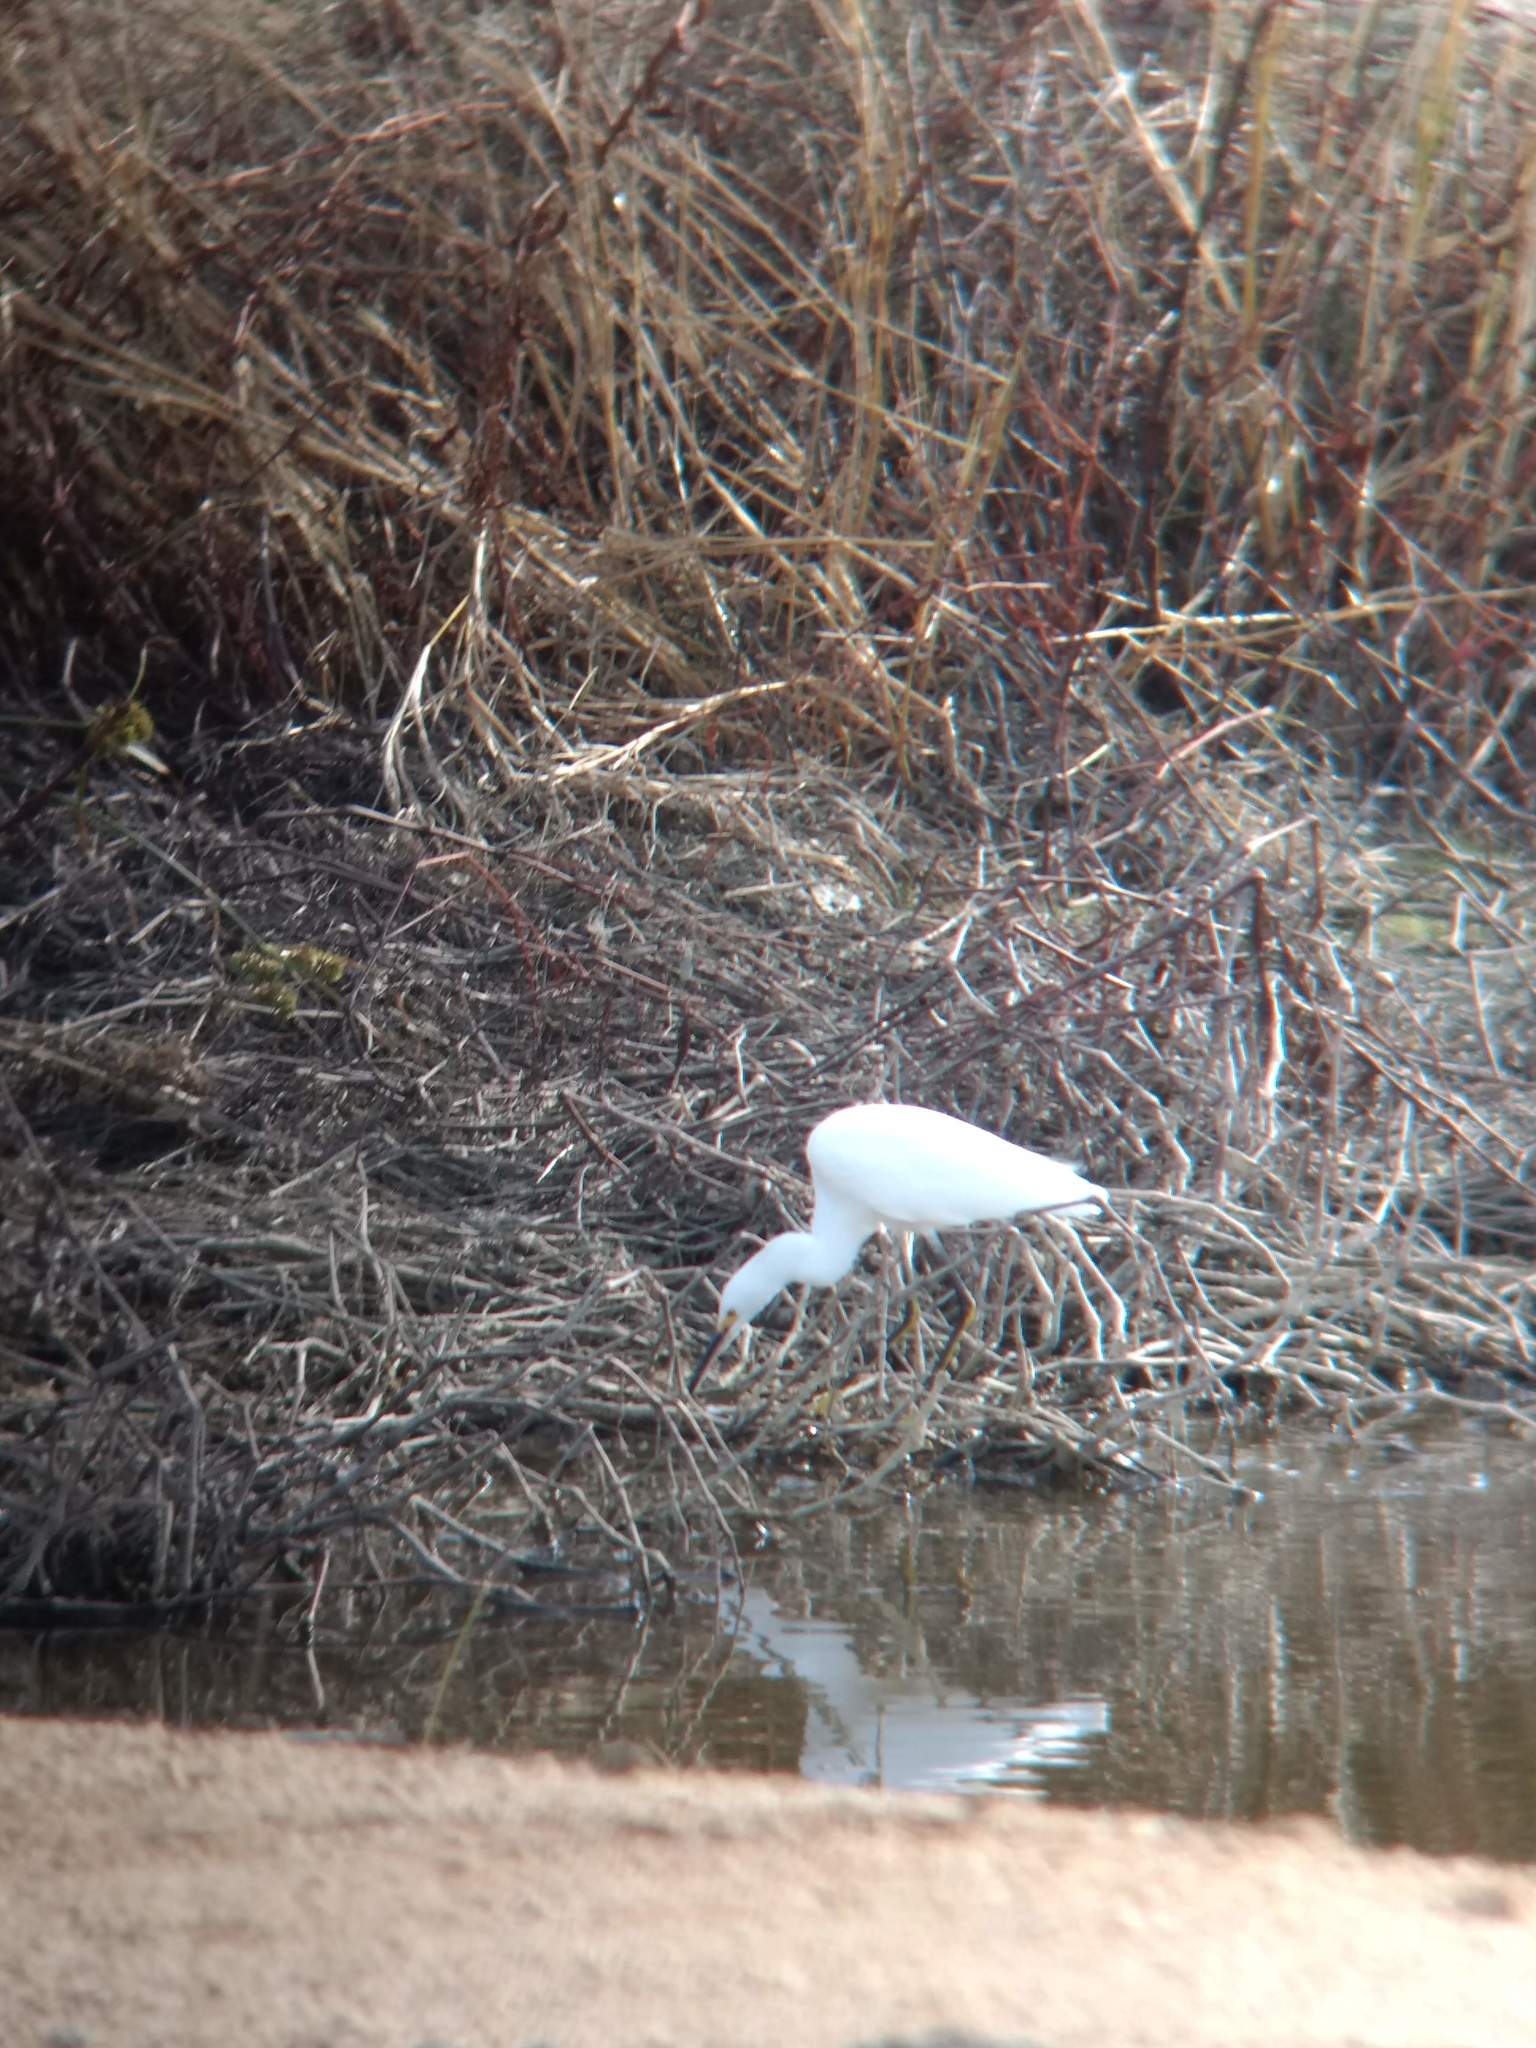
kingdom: Animalia
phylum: Chordata
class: Aves
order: Pelecaniformes
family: Ardeidae
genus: Egretta
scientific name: Egretta thula
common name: Snowy egret
